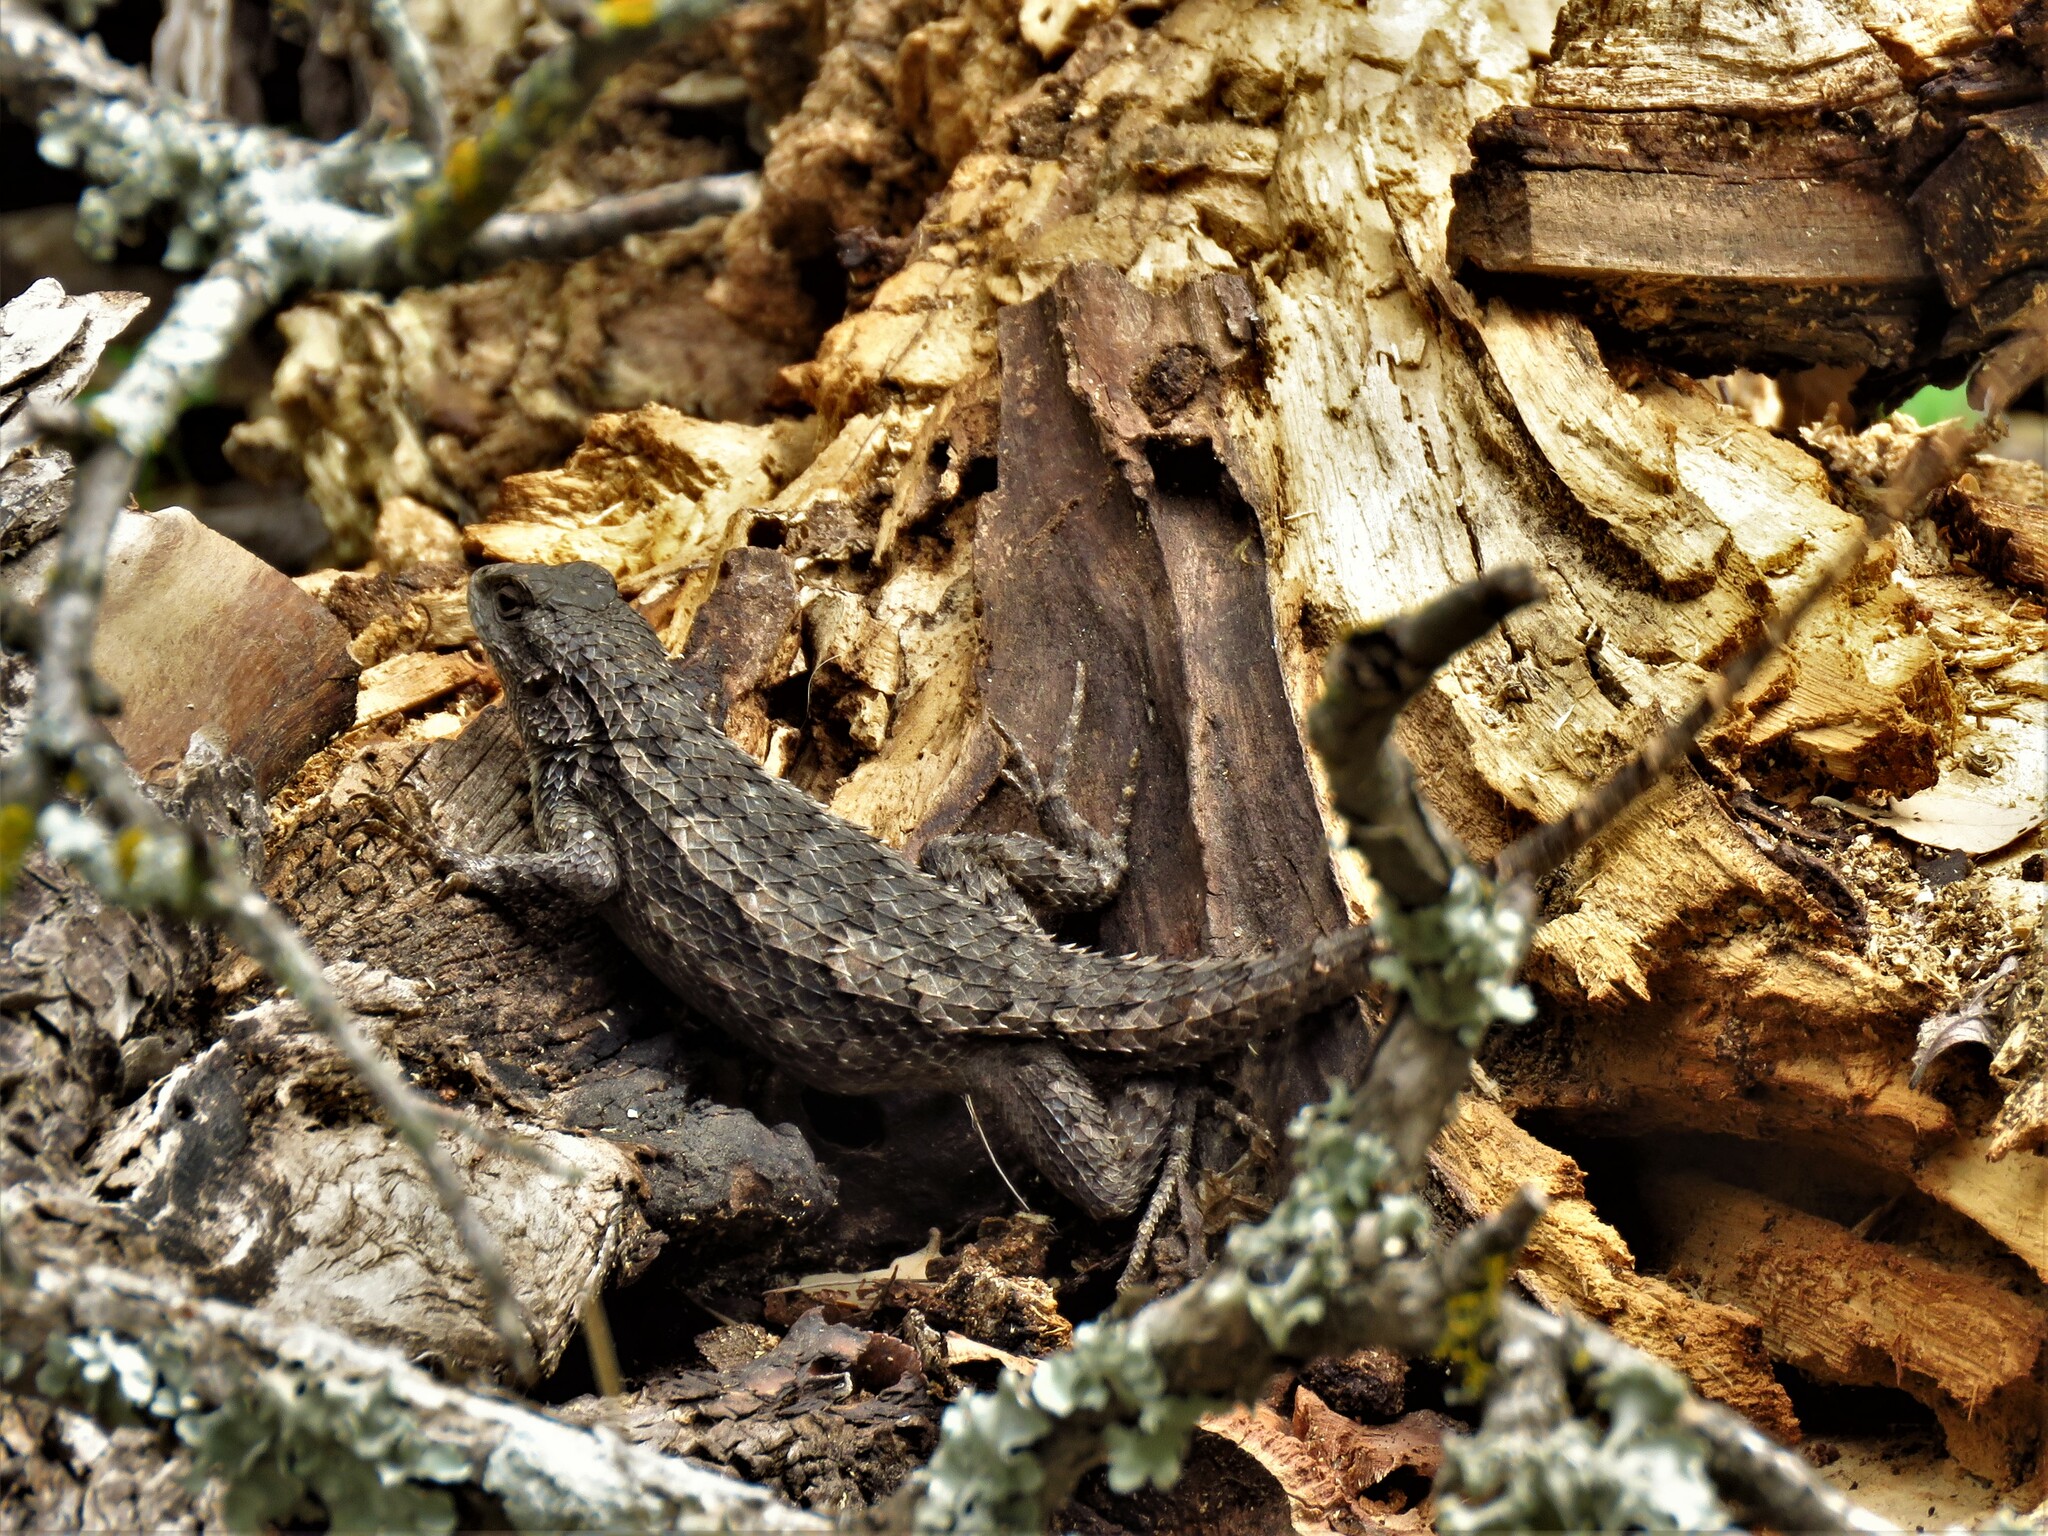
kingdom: Animalia
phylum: Chordata
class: Squamata
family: Phrynosomatidae
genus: Sceloporus
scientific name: Sceloporus olivaceus
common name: Texas spiny lizard
